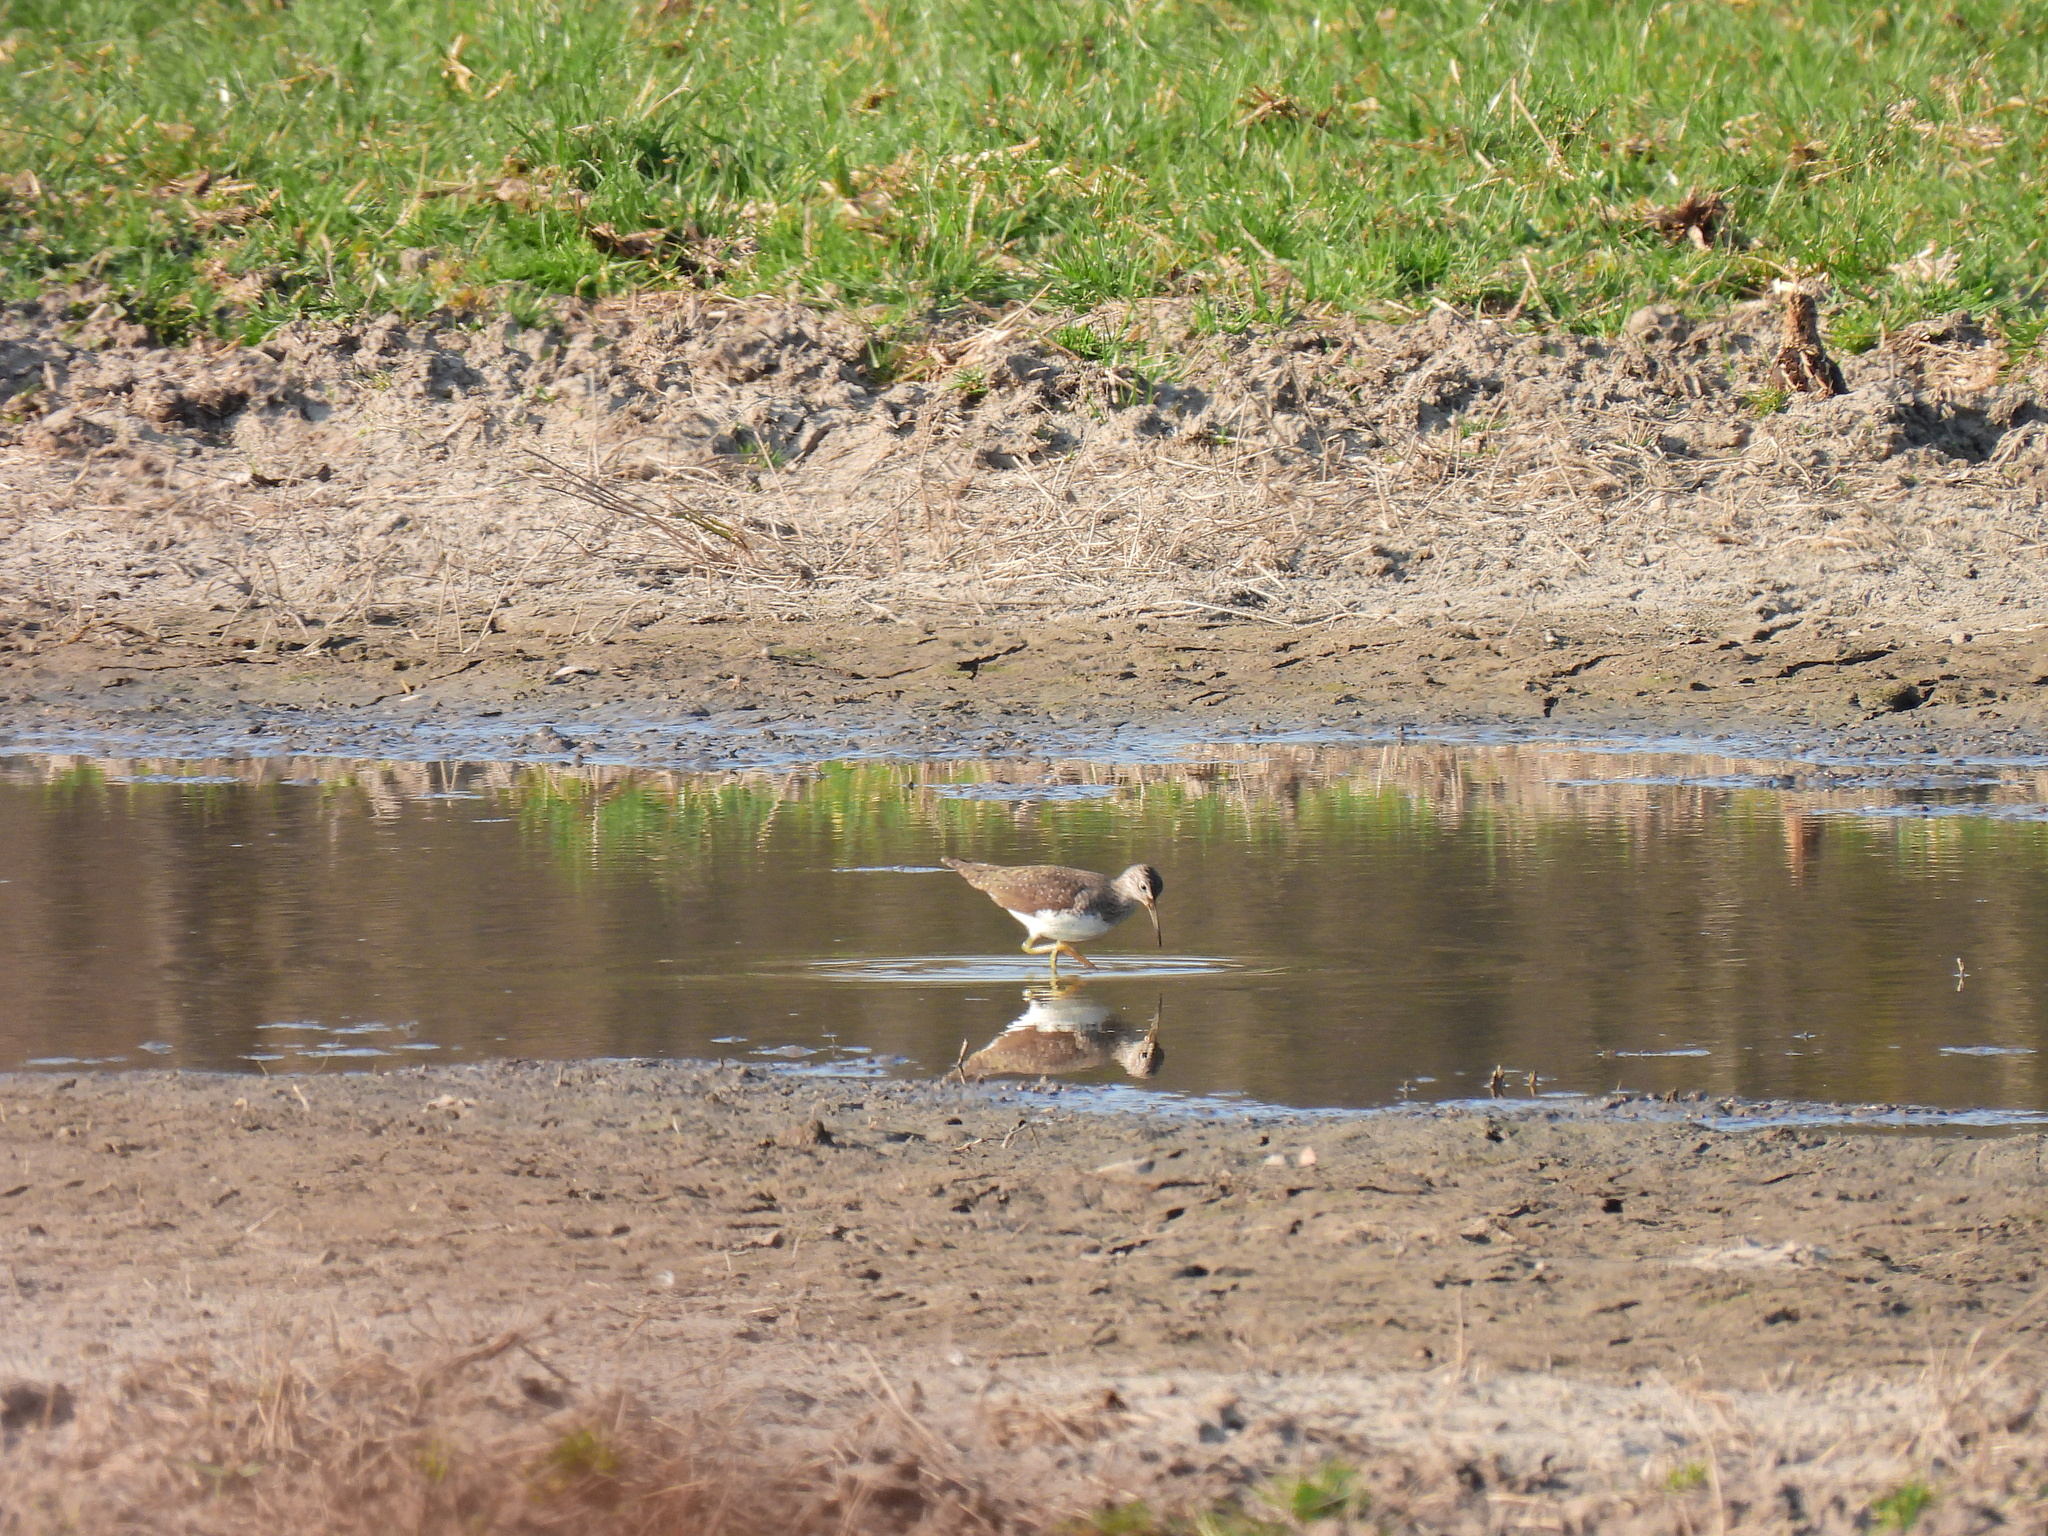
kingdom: Animalia
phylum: Chordata
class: Aves
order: Charadriiformes
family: Scolopacidae
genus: Tringa
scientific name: Tringa ochropus
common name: Green sandpiper
